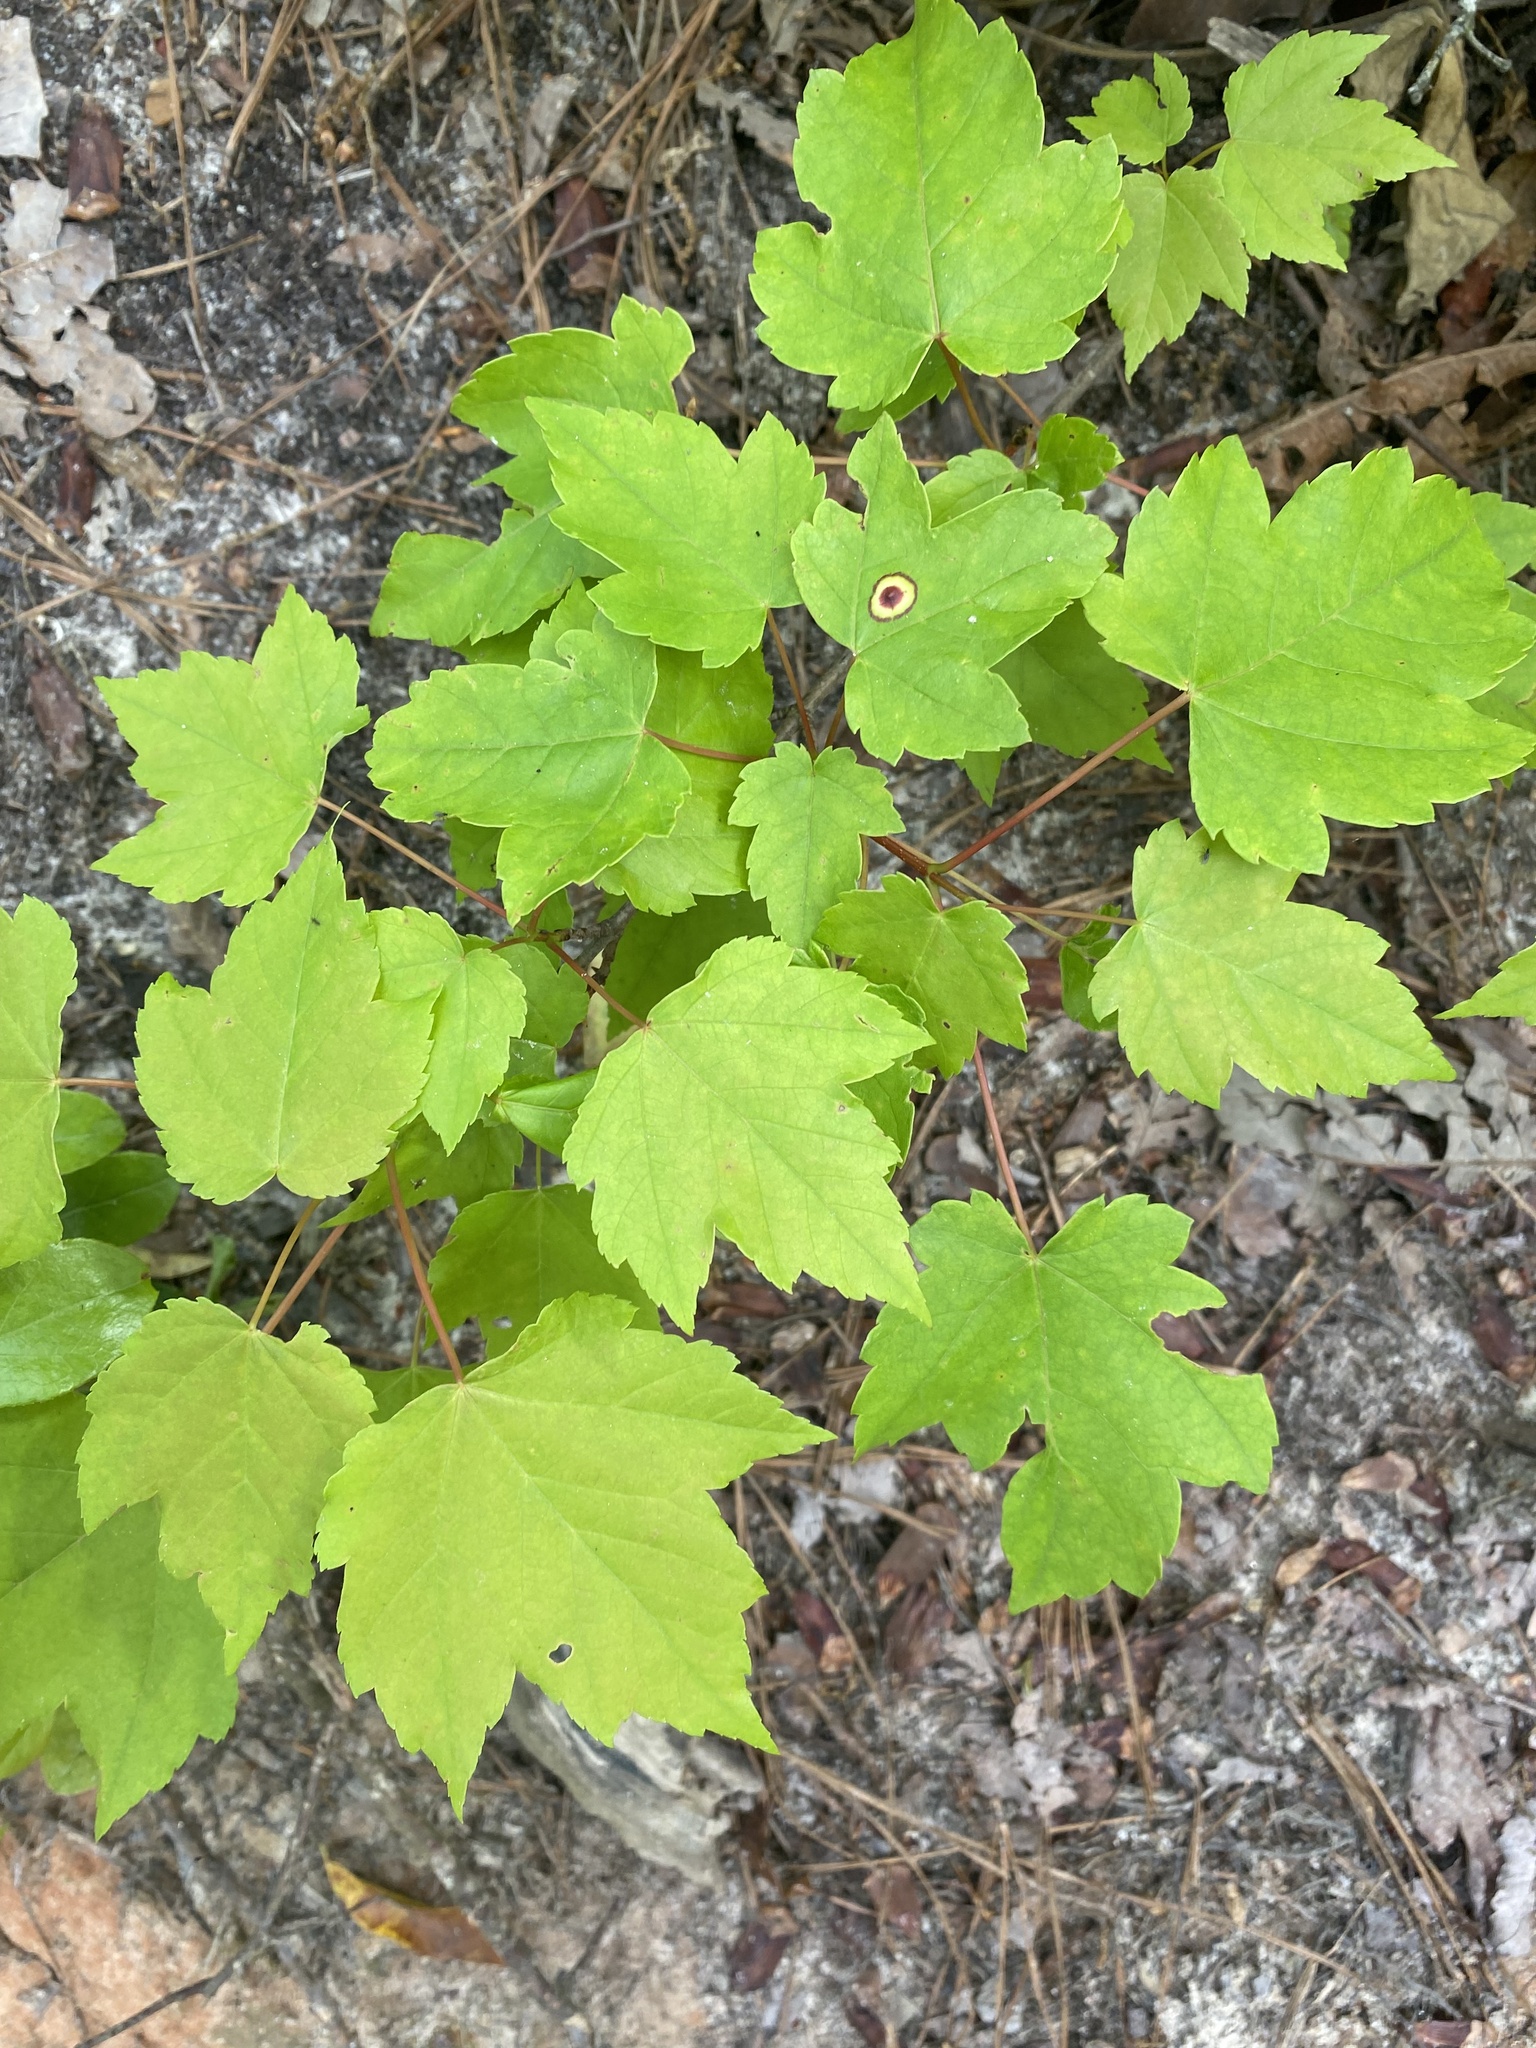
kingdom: Animalia
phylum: Arthropoda
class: Insecta
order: Diptera
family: Cecidomyiidae
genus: Acericecis
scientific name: Acericecis ocellaris
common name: Ocellate gall midge
